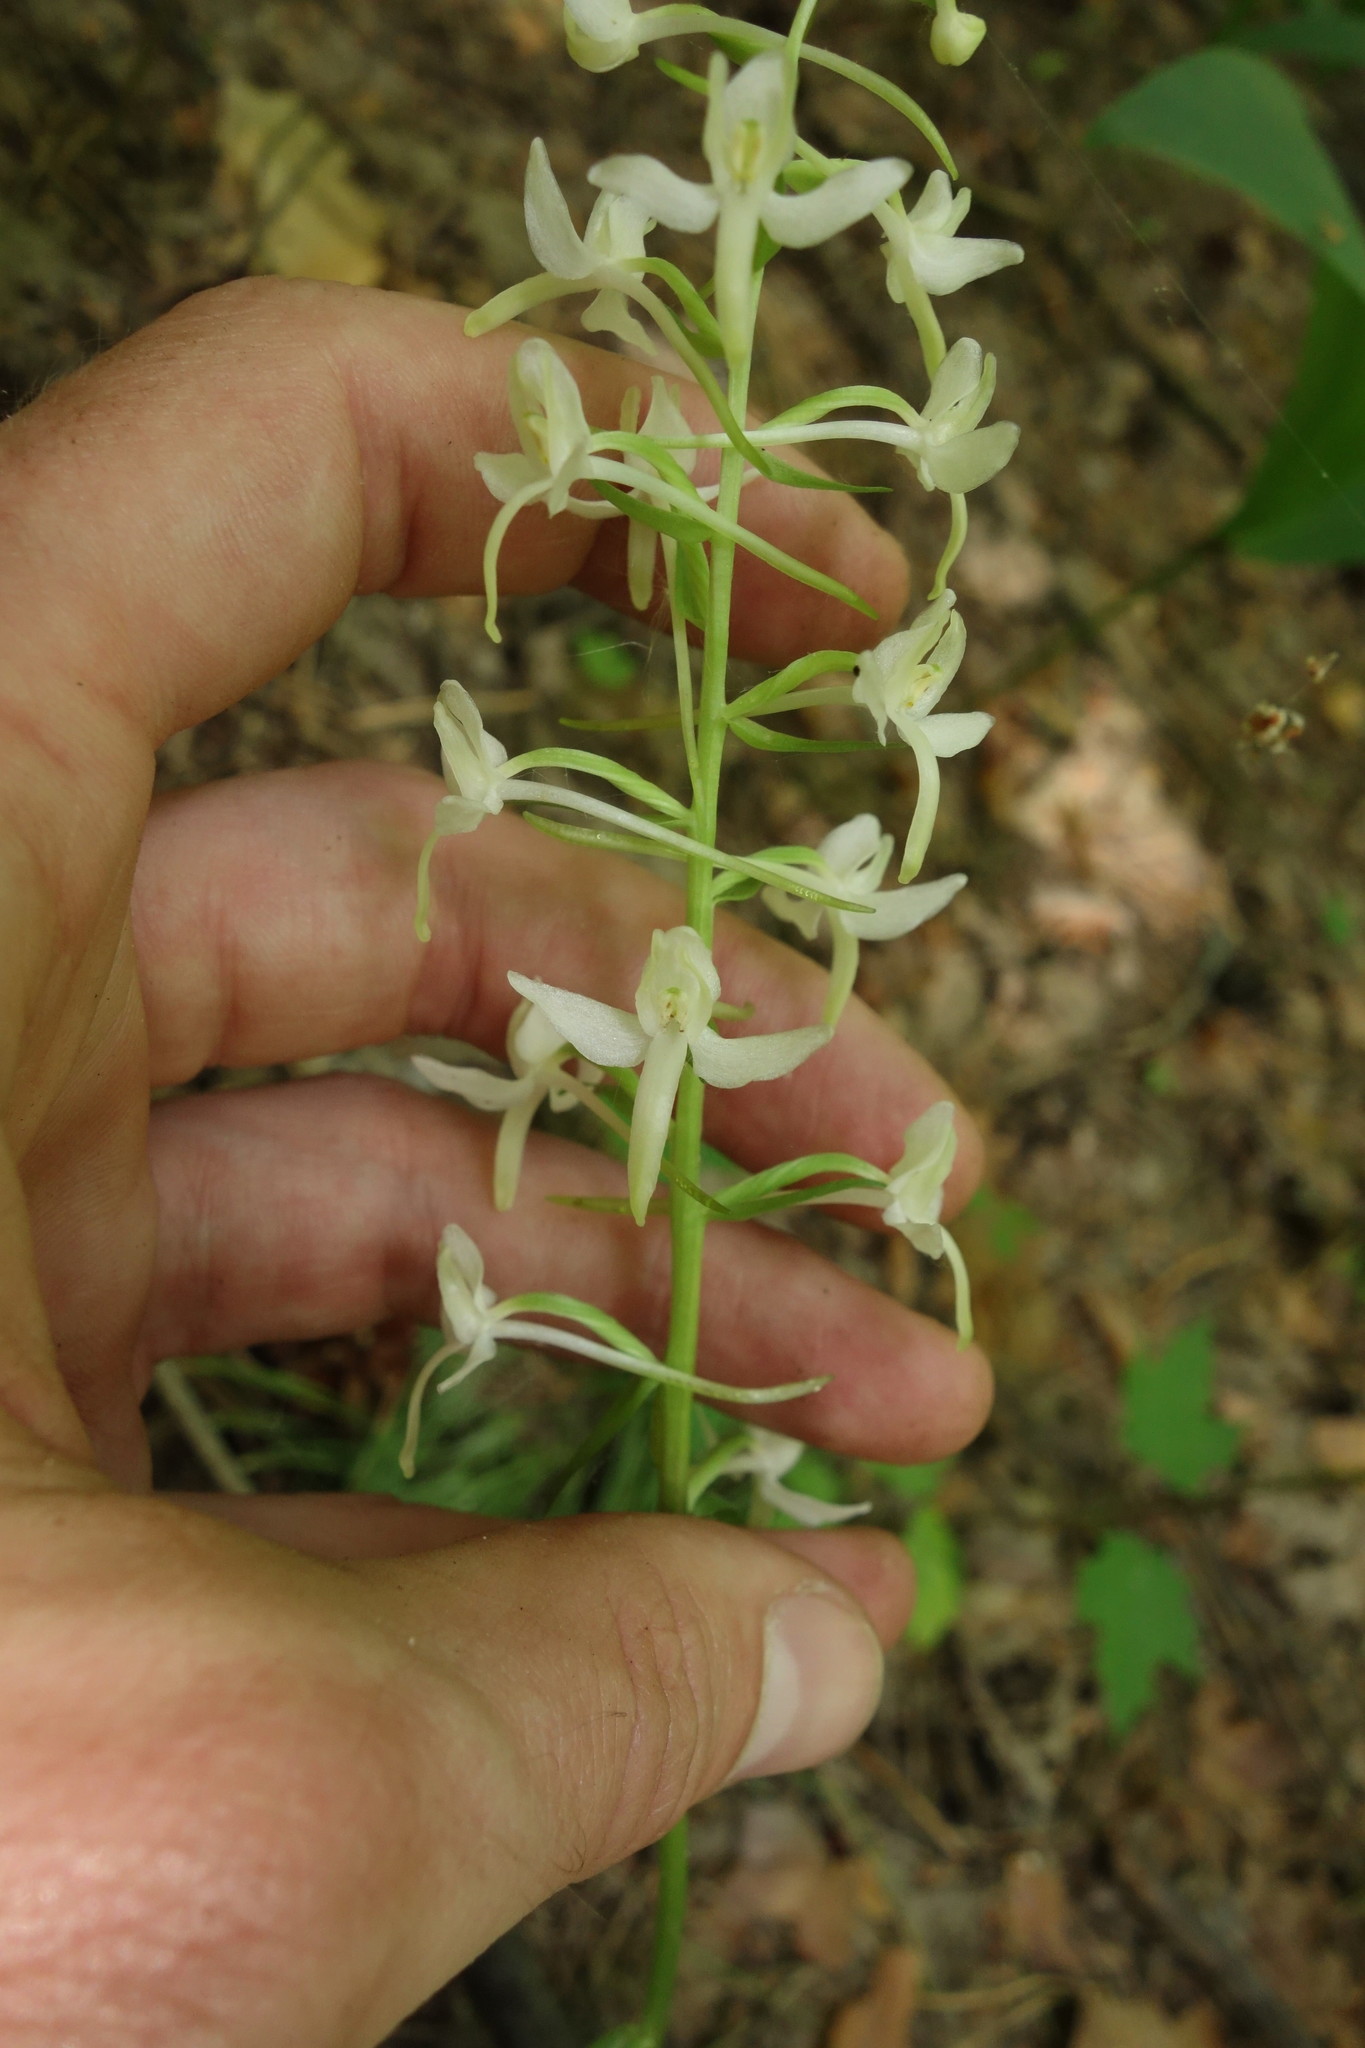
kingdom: Plantae
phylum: Tracheophyta
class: Liliopsida
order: Asparagales
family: Orchidaceae
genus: Platanthera
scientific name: Platanthera bifolia
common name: Lesser butterfly-orchid
